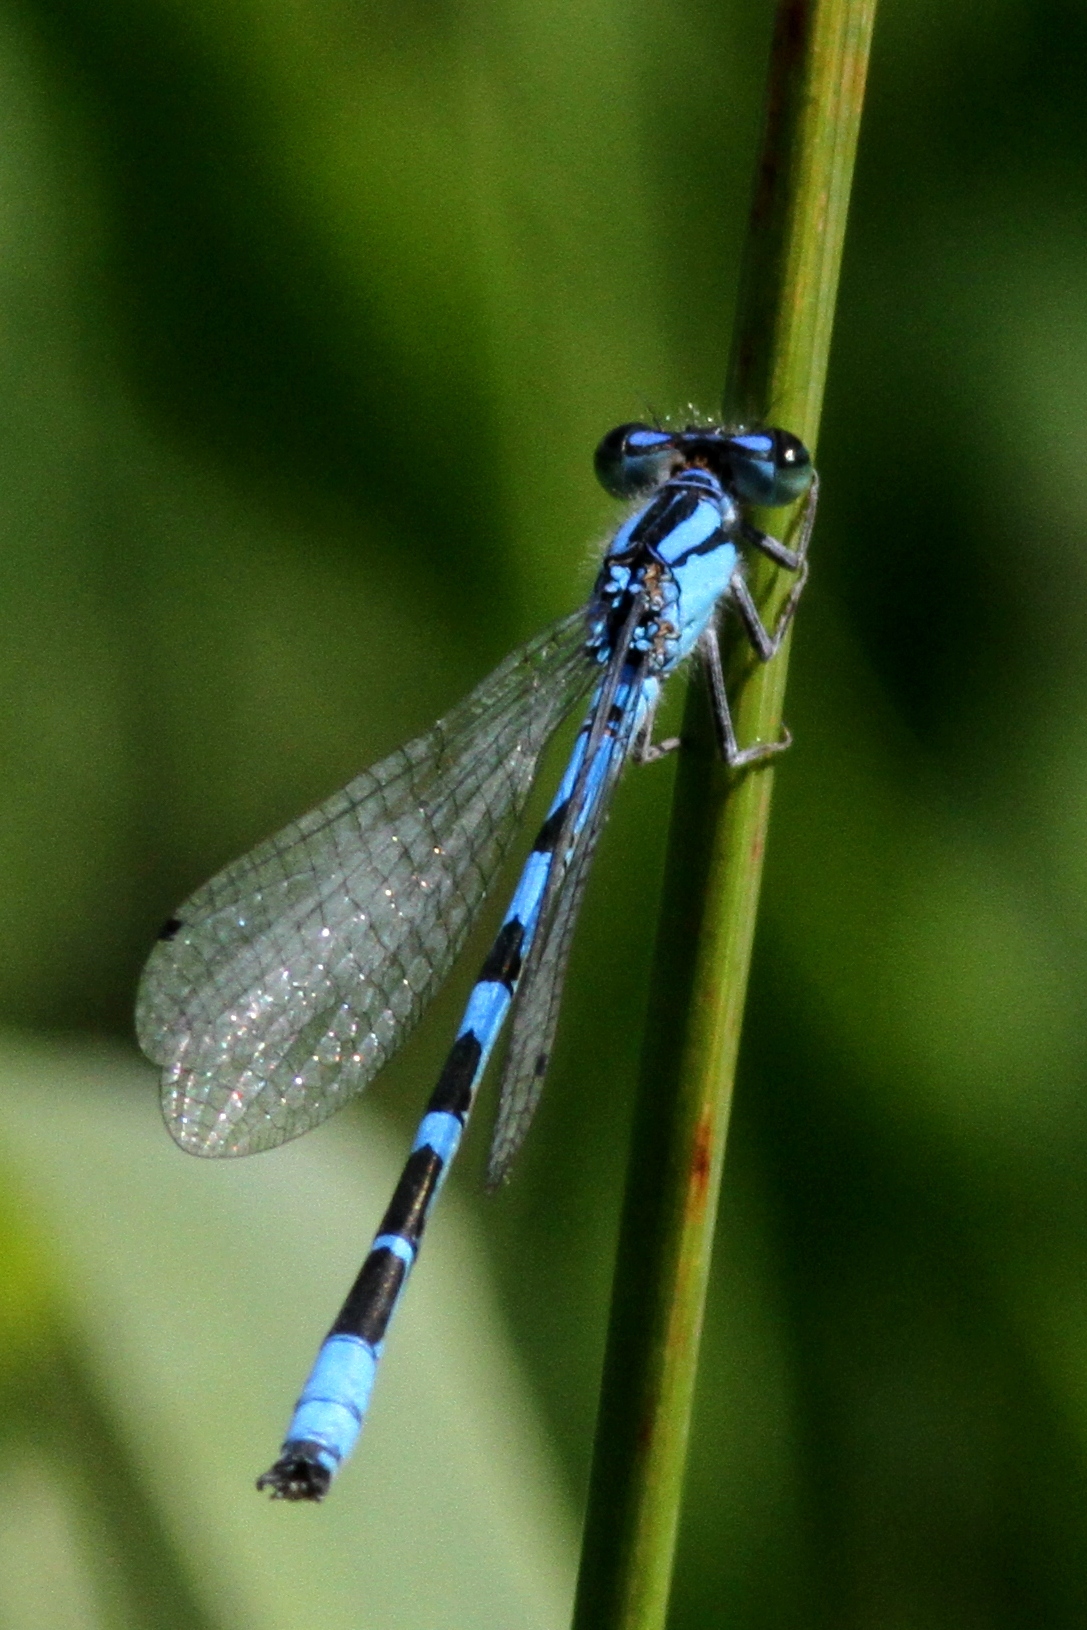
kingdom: Animalia
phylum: Arthropoda
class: Insecta
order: Odonata
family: Coenagrionidae
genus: Enallagma
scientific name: Enallagma anna
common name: River bluet
